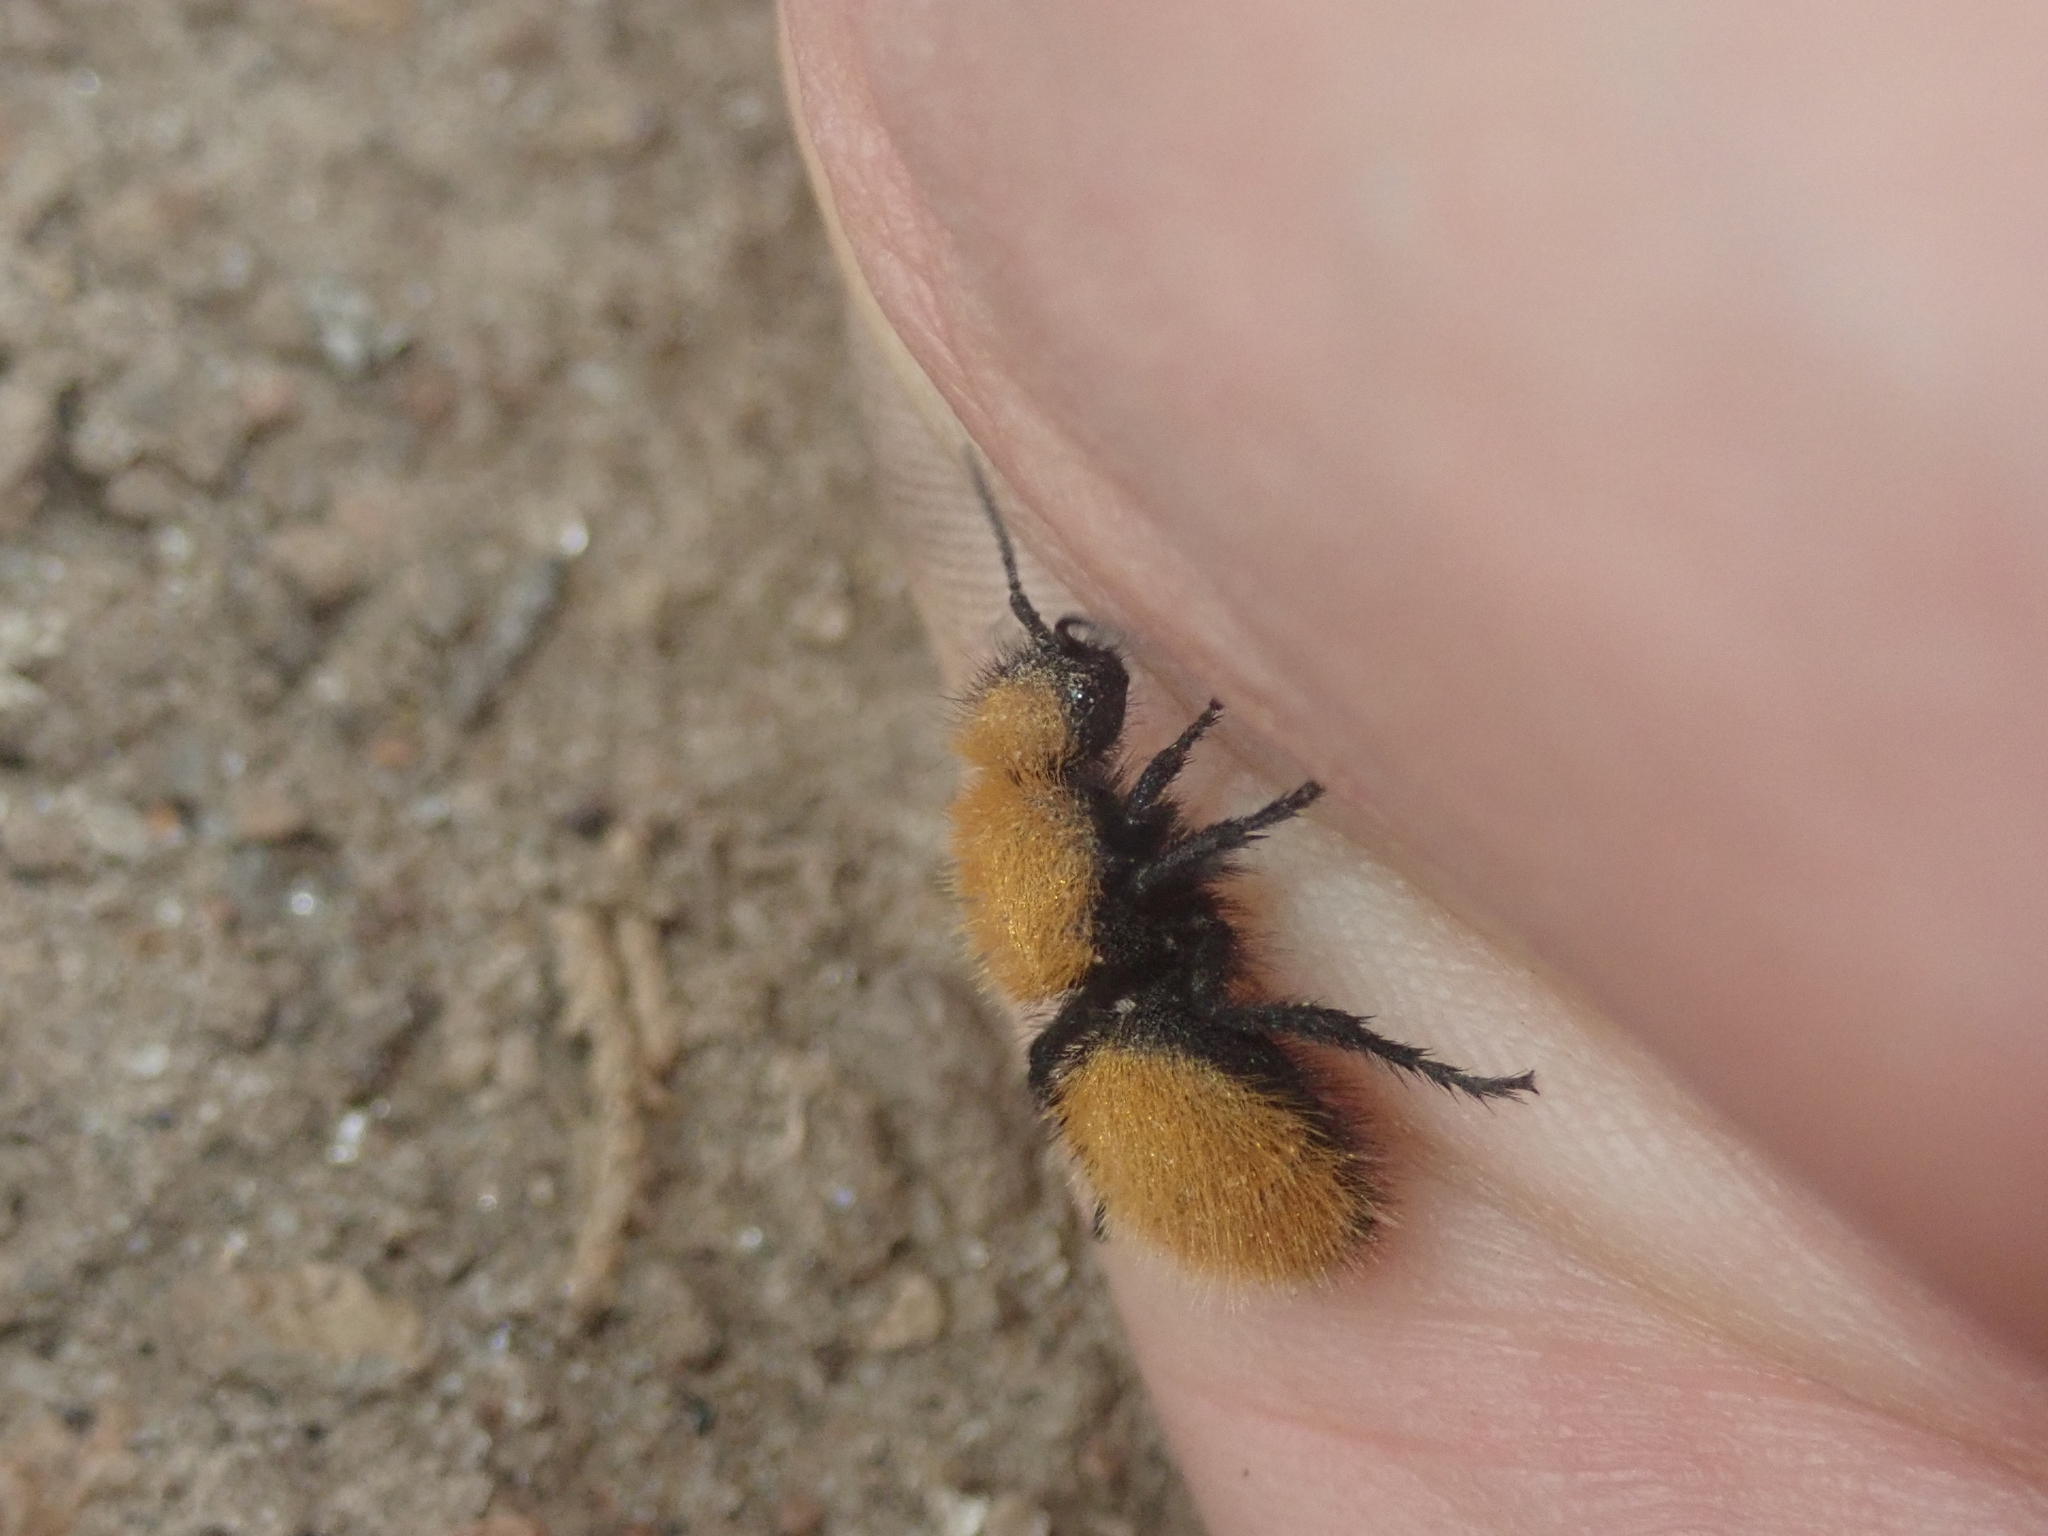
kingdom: Animalia
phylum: Arthropoda
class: Insecta
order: Hymenoptera
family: Mutillidae
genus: Dasymutilla
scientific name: Dasymutilla vestita
